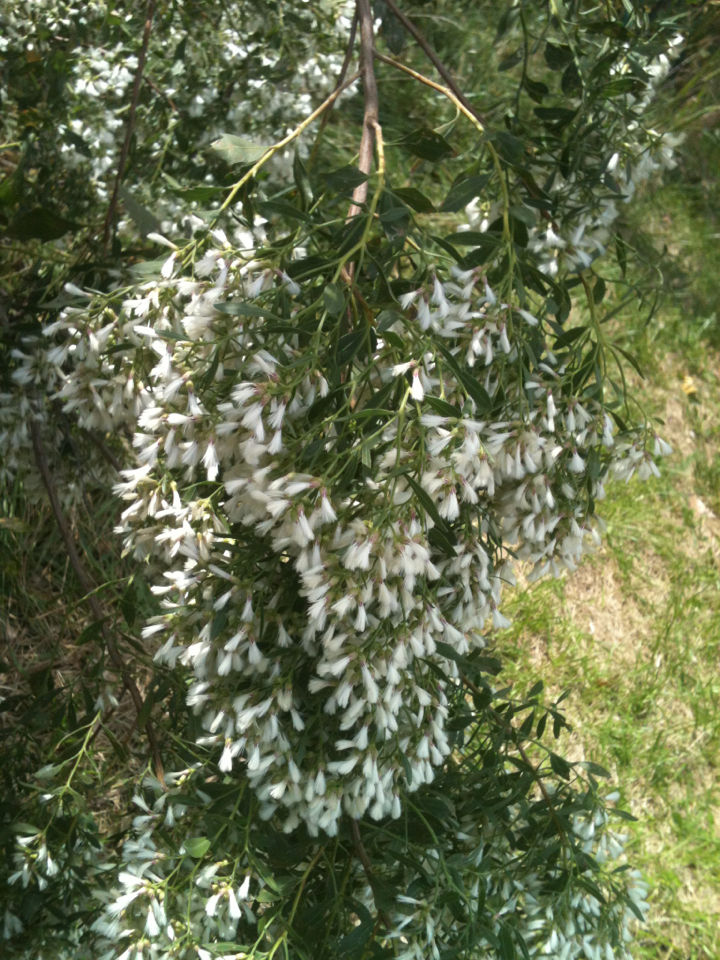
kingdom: Plantae
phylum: Tracheophyta
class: Magnoliopsida
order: Asterales
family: Asteraceae
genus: Baccharis
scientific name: Baccharis halimifolia
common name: Eastern baccharis
